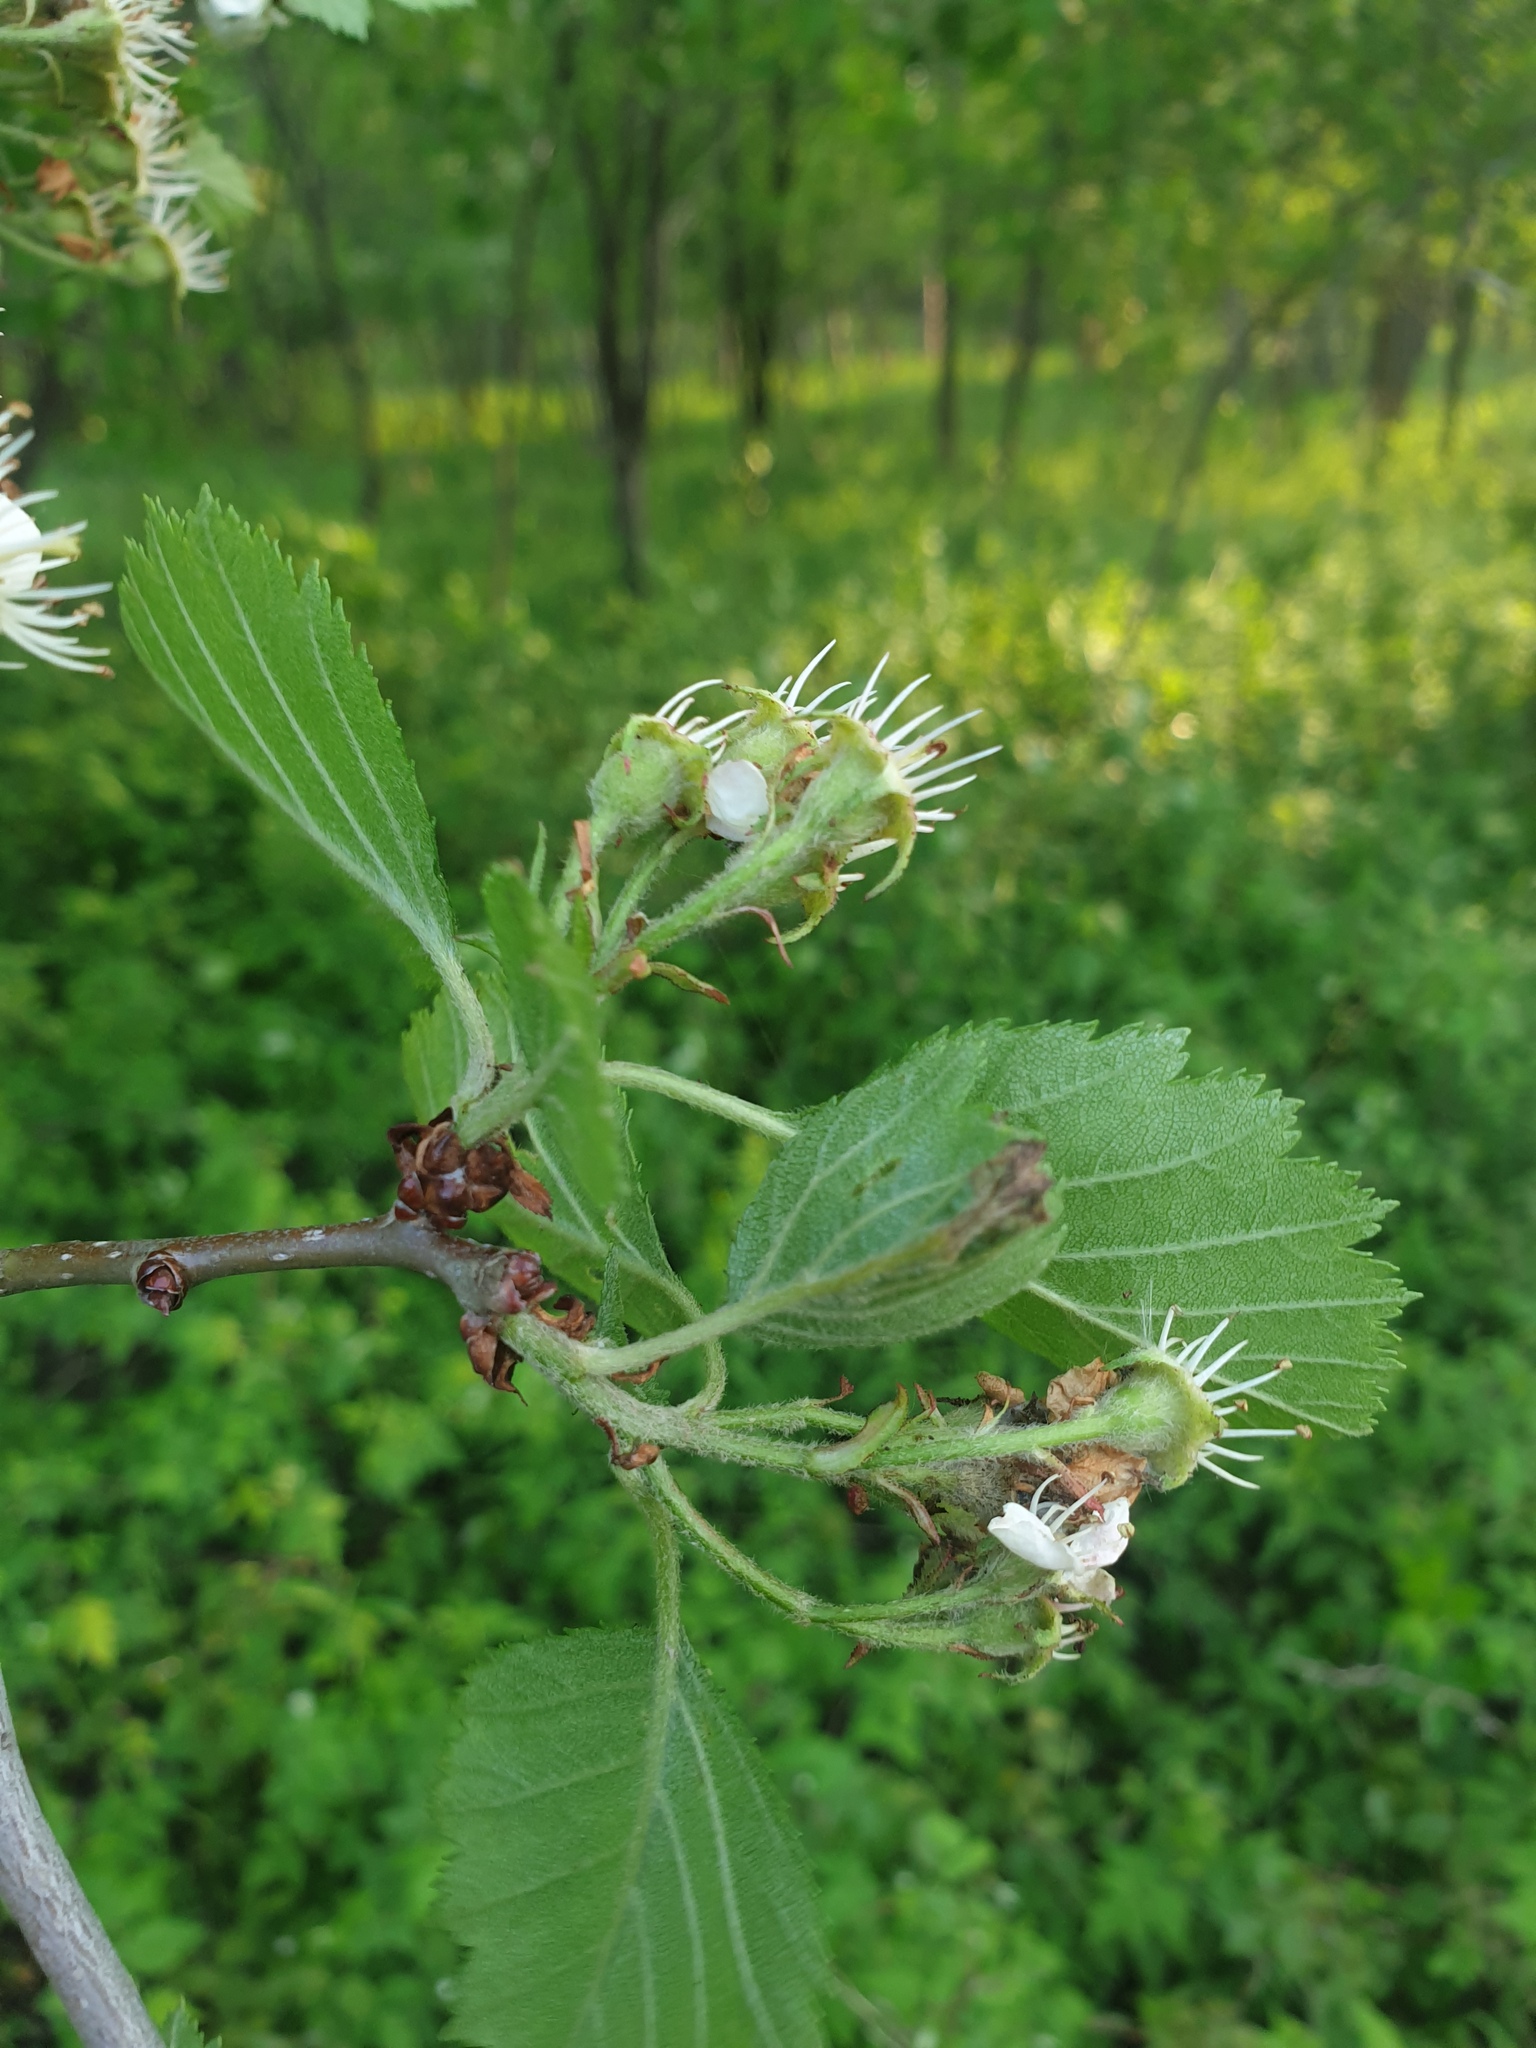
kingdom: Plantae
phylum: Tracheophyta
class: Magnoliopsida
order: Rosales
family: Rosaceae
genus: Crataegus
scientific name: Crataegus submollis
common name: Hairy cockspurthorn
